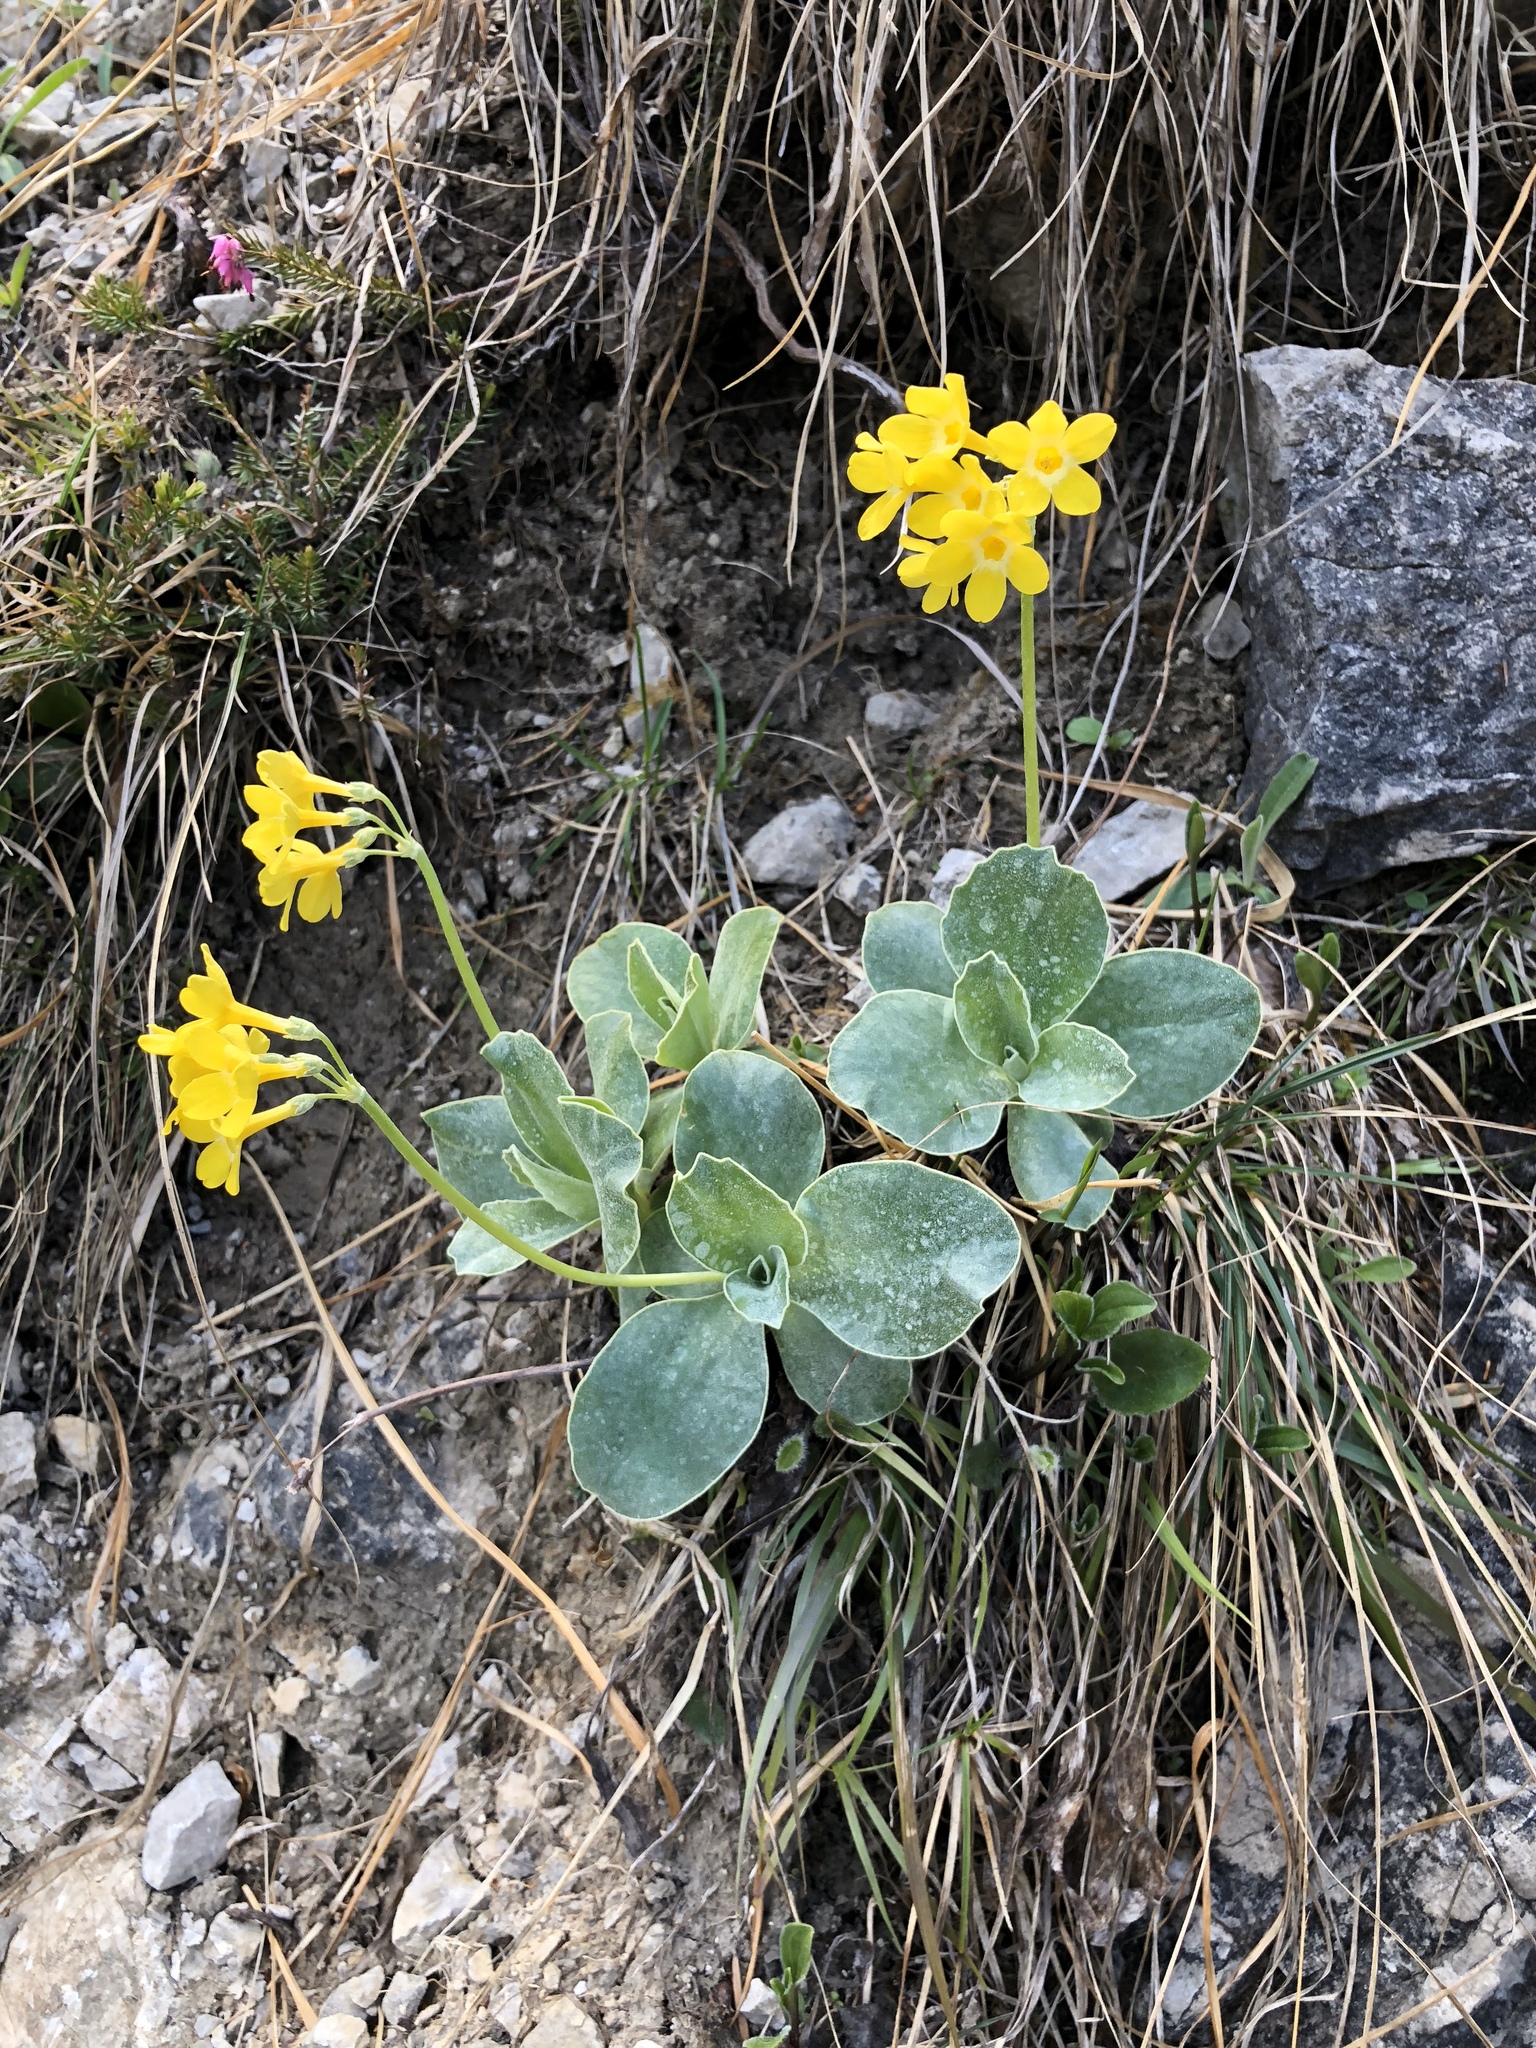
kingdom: Plantae
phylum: Tracheophyta
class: Magnoliopsida
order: Ericales
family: Primulaceae
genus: Primula
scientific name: Primula auricula
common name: Auricula
